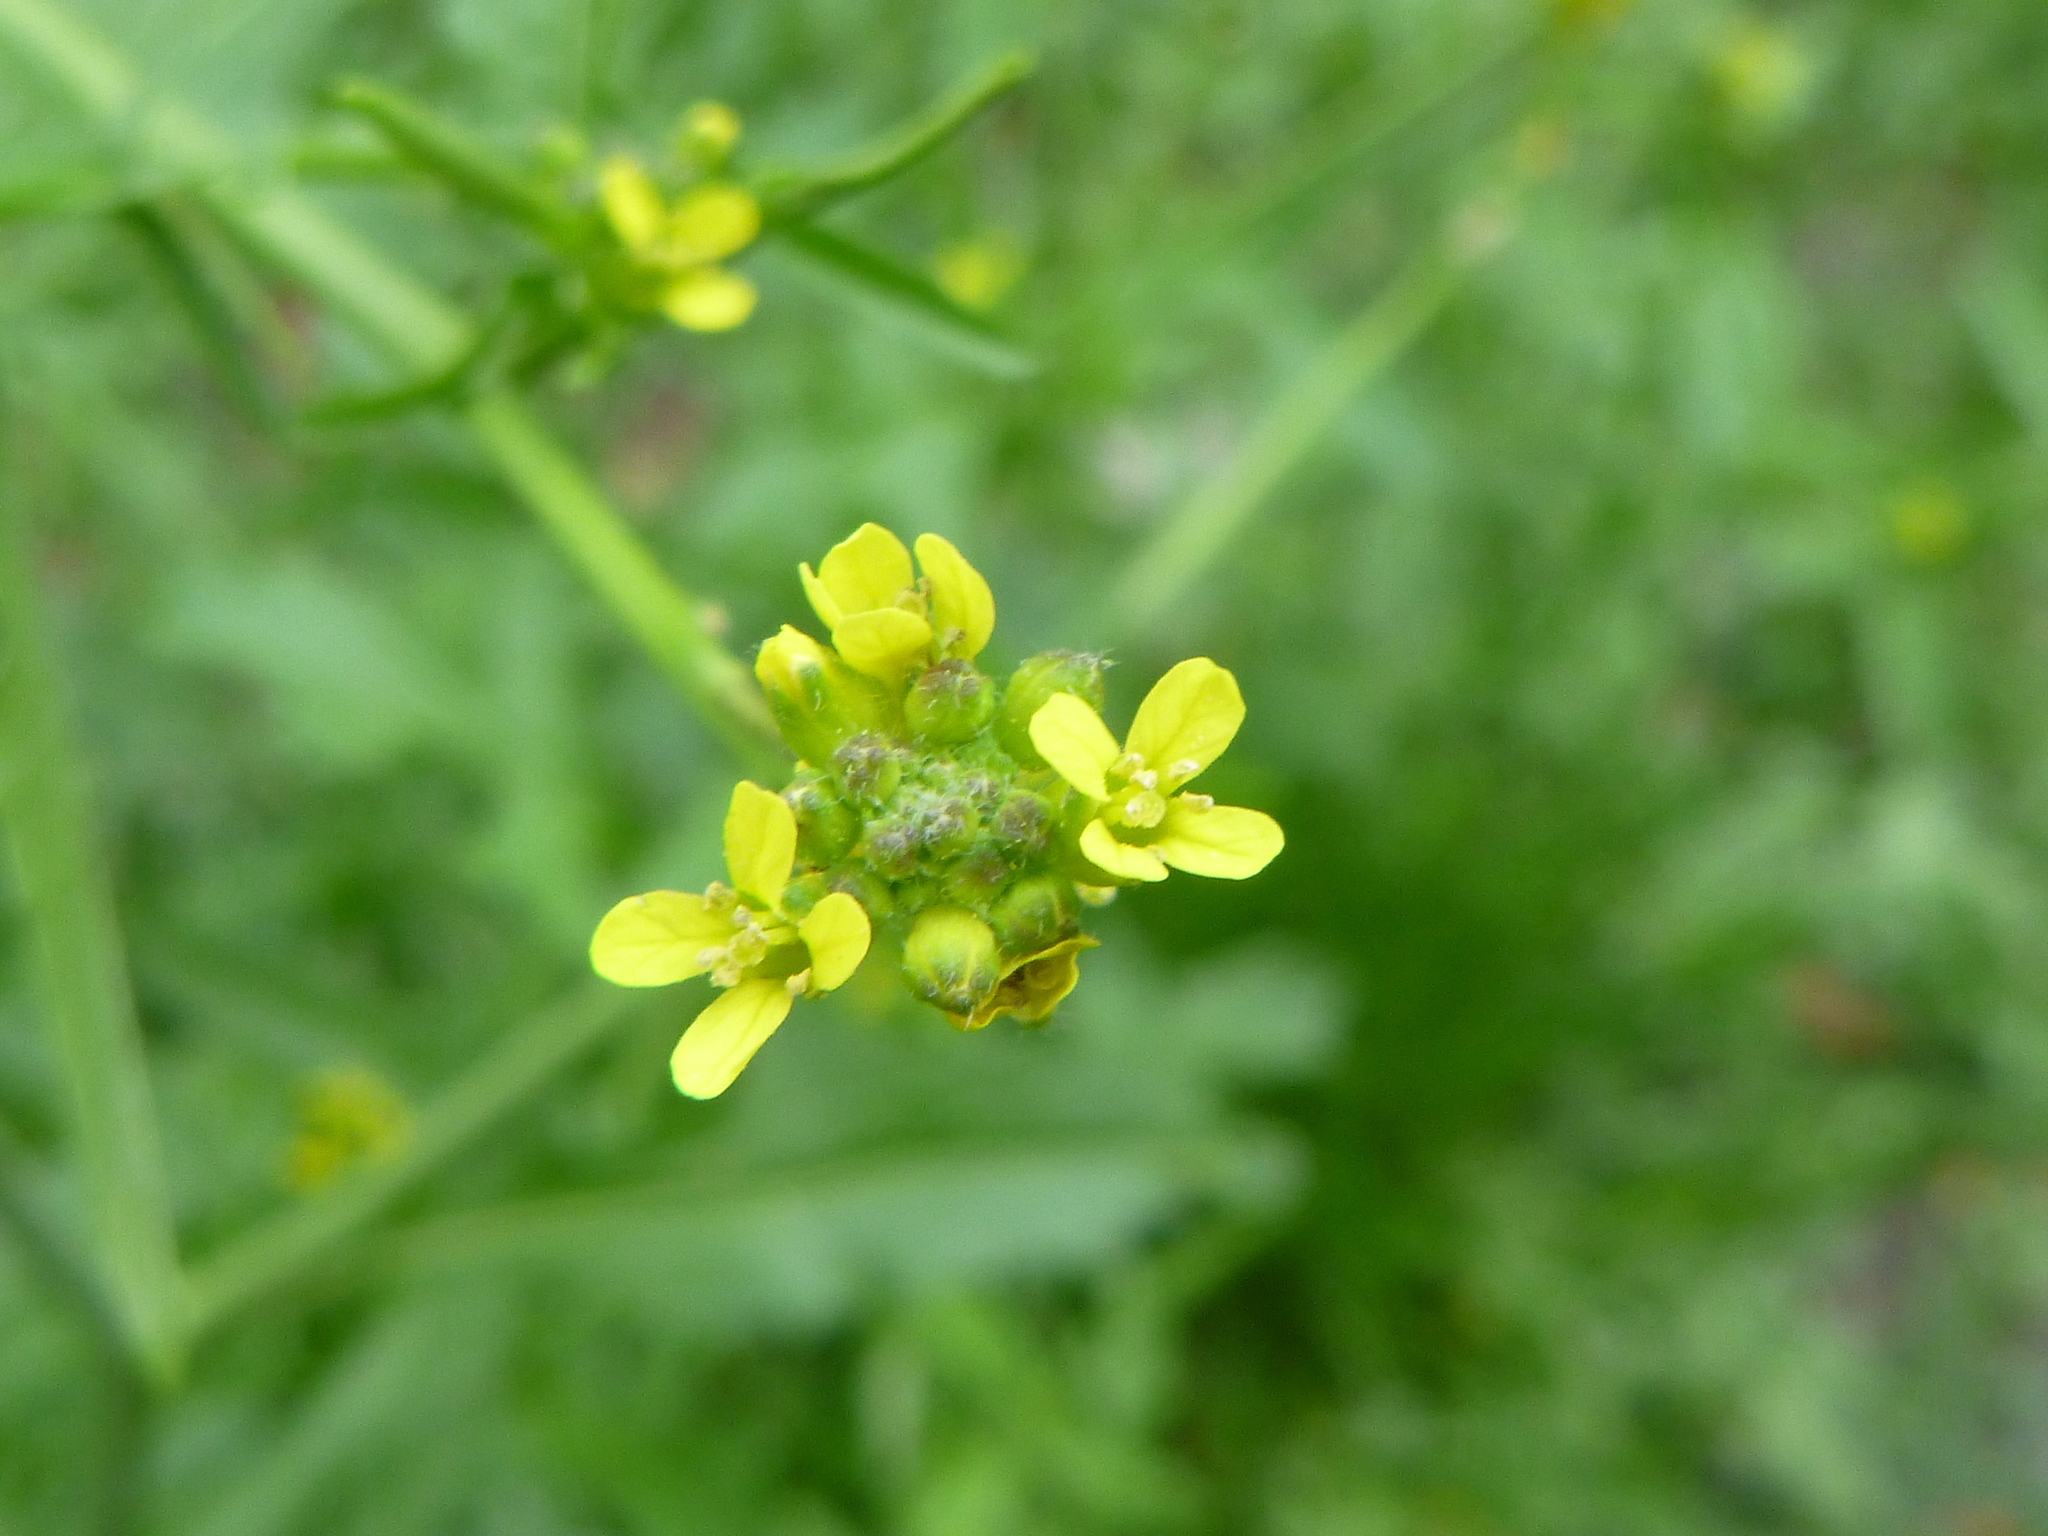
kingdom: Plantae
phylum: Tracheophyta
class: Magnoliopsida
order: Brassicales
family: Brassicaceae
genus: Sisymbrium
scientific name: Sisymbrium officinale
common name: Hedge mustard
